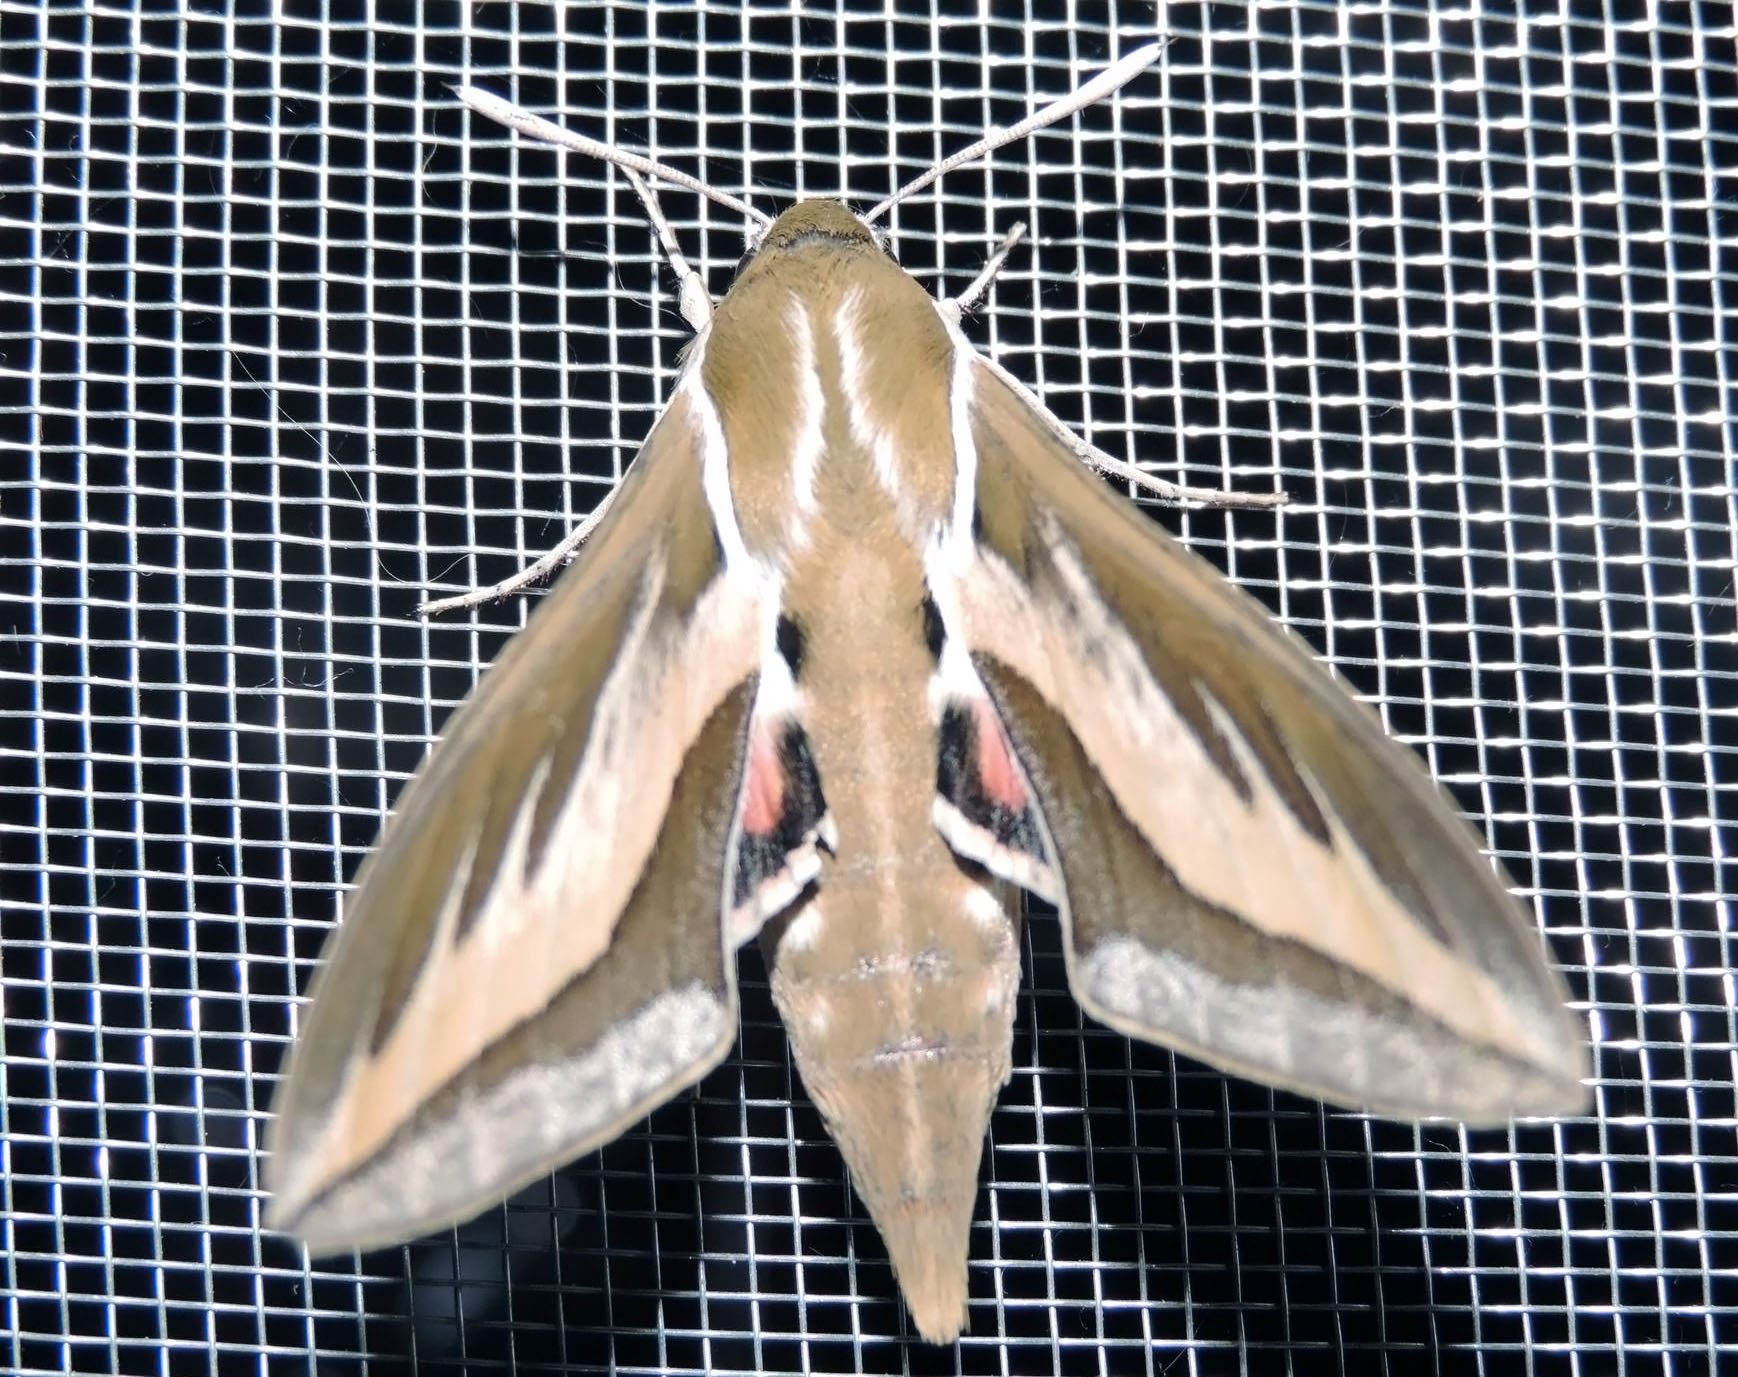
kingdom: Animalia
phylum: Arthropoda
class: Insecta
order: Lepidoptera
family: Sphingidae
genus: Hyles
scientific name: Hyles euphorbiarum
